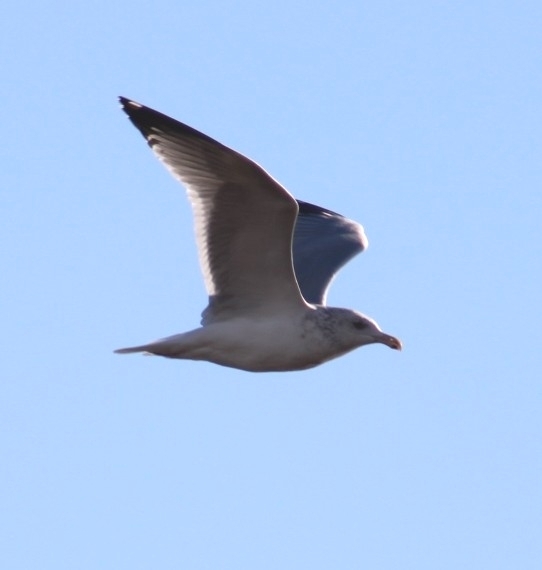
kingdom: Animalia
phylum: Chordata
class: Aves
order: Charadriiformes
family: Laridae
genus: Larus
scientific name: Larus argentatus
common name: Herring gull
